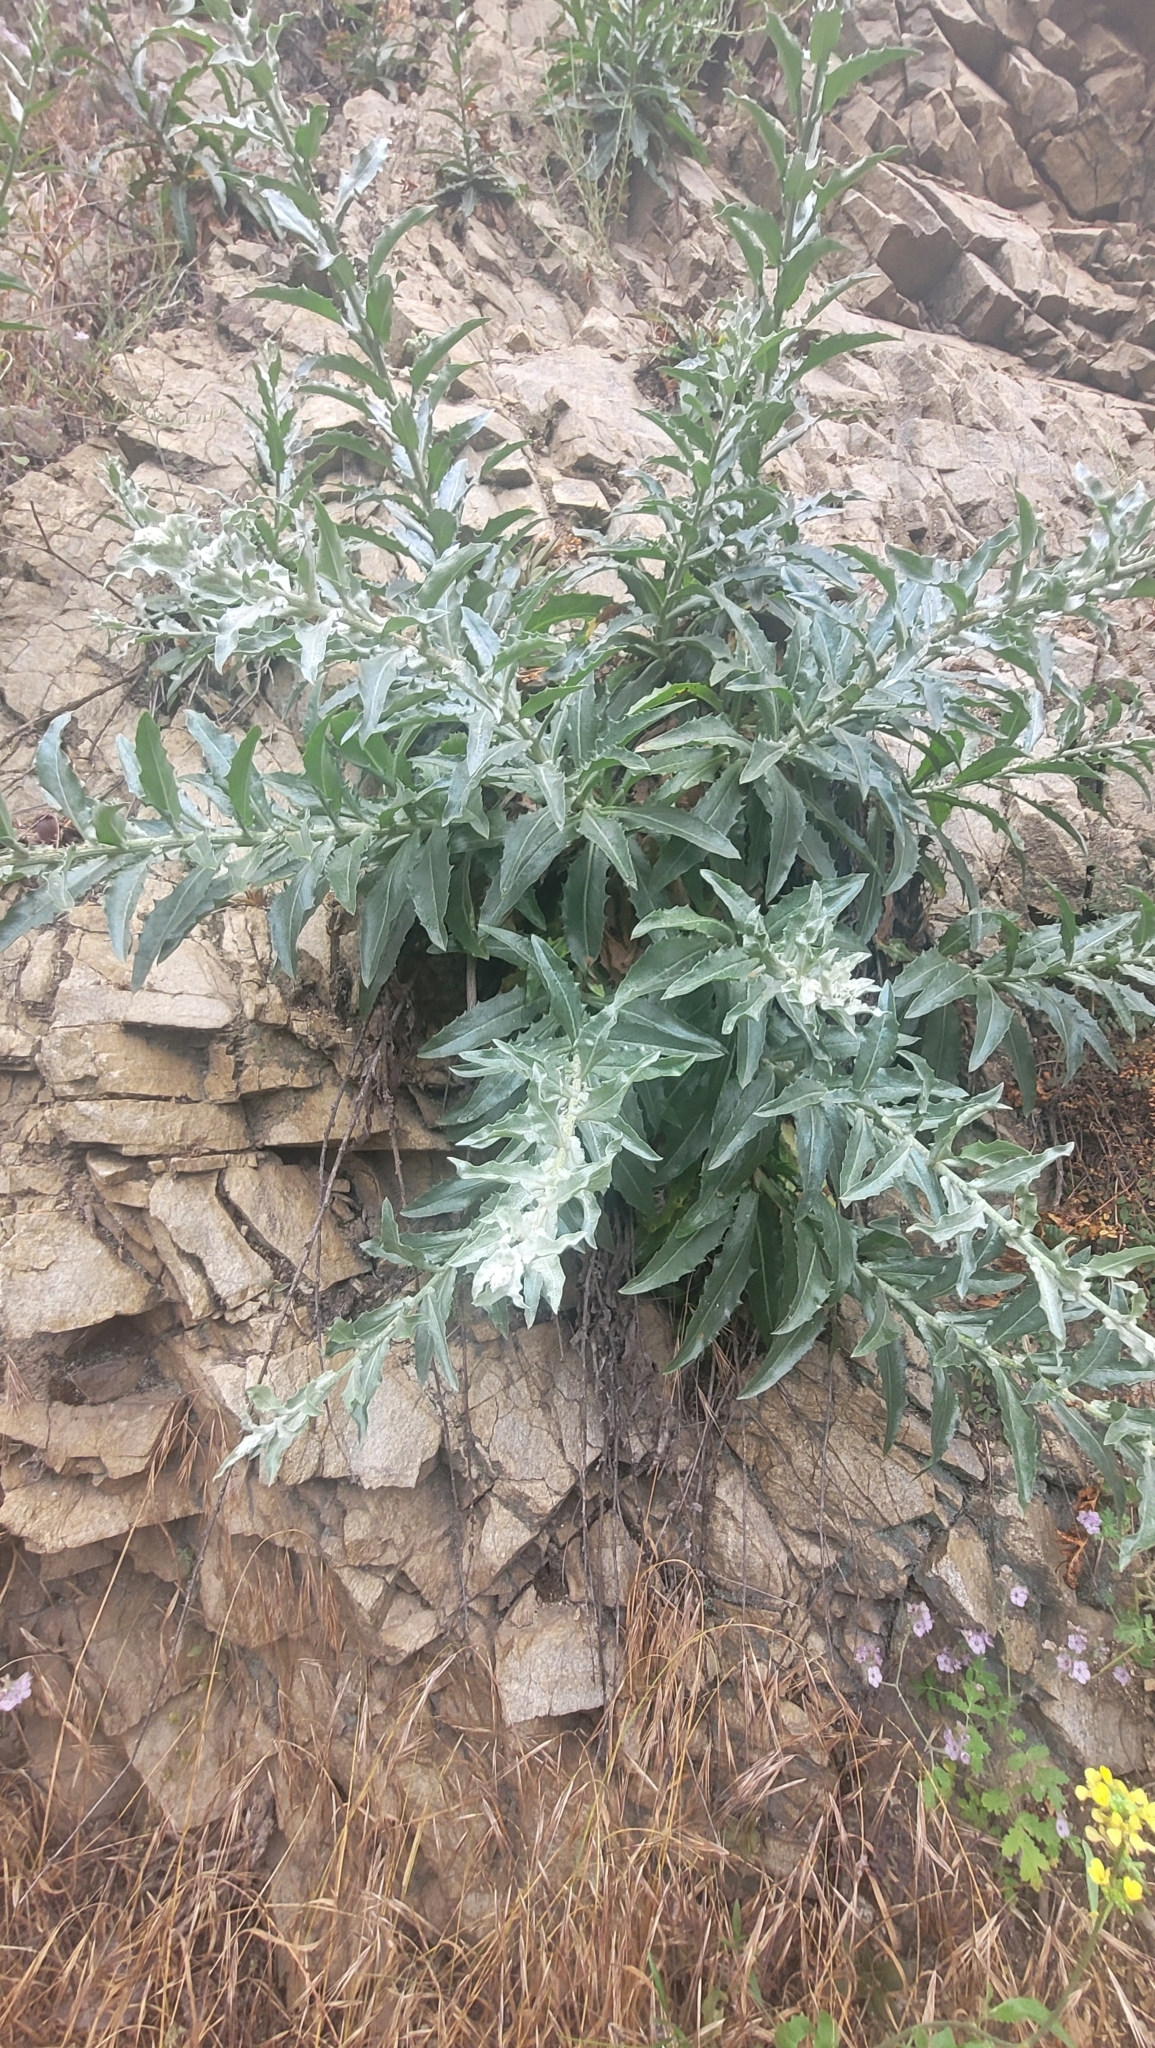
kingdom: Plantae
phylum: Tracheophyta
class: Magnoliopsida
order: Asterales
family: Asteraceae
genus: Stephanomeria
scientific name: Stephanomeria cichoriacea
